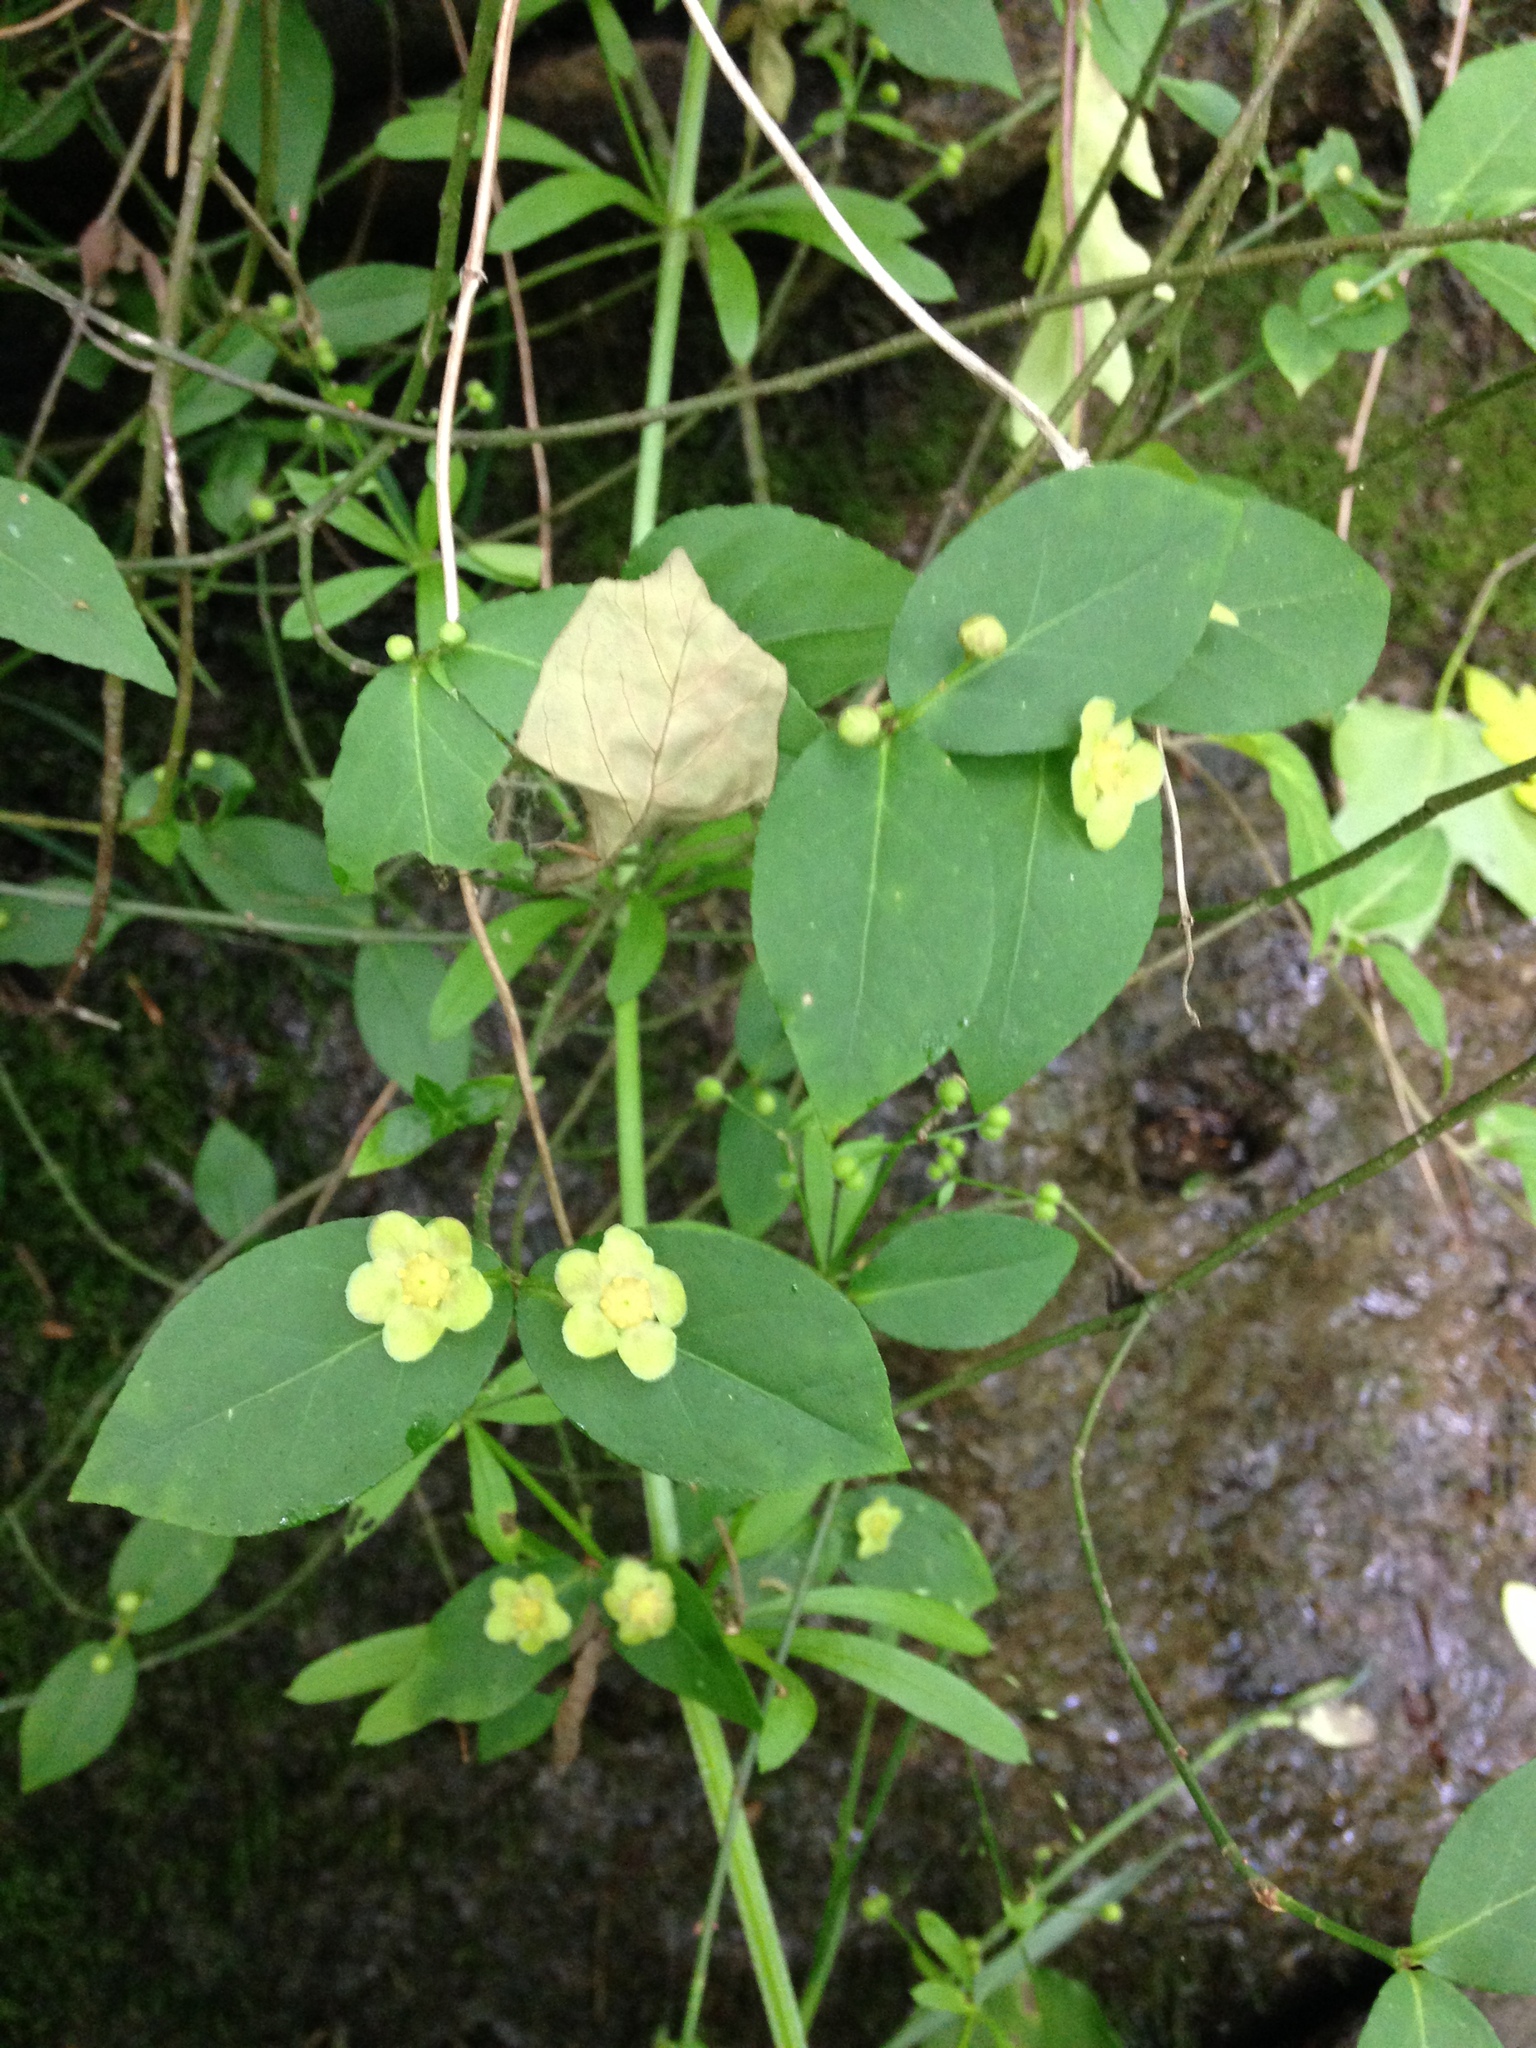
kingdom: Plantae
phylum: Tracheophyta
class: Magnoliopsida
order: Celastrales
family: Celastraceae
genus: Euonymus
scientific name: Euonymus americanus
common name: Bursting-heart
